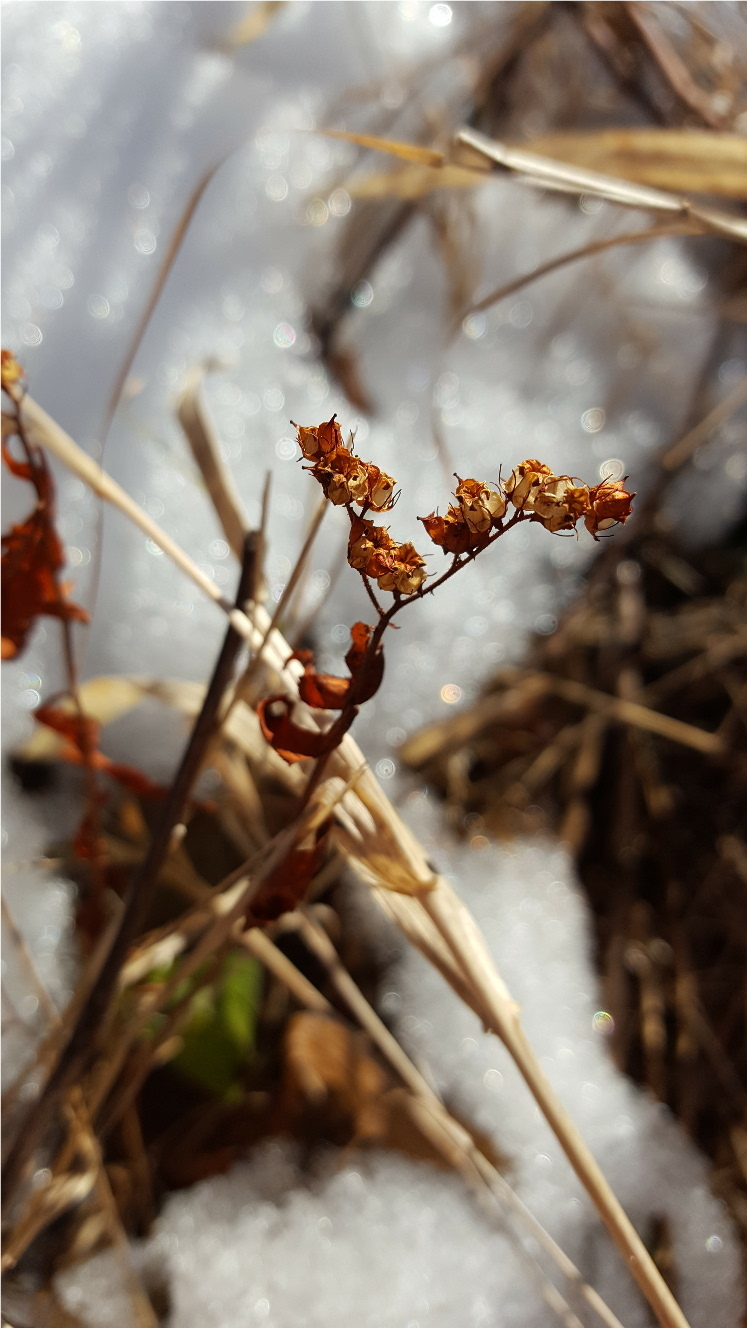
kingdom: Plantae
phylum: Tracheophyta
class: Magnoliopsida
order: Saxifragales
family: Penthoraceae
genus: Penthorum
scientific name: Penthorum sedoides
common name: Ditch stonecrop
